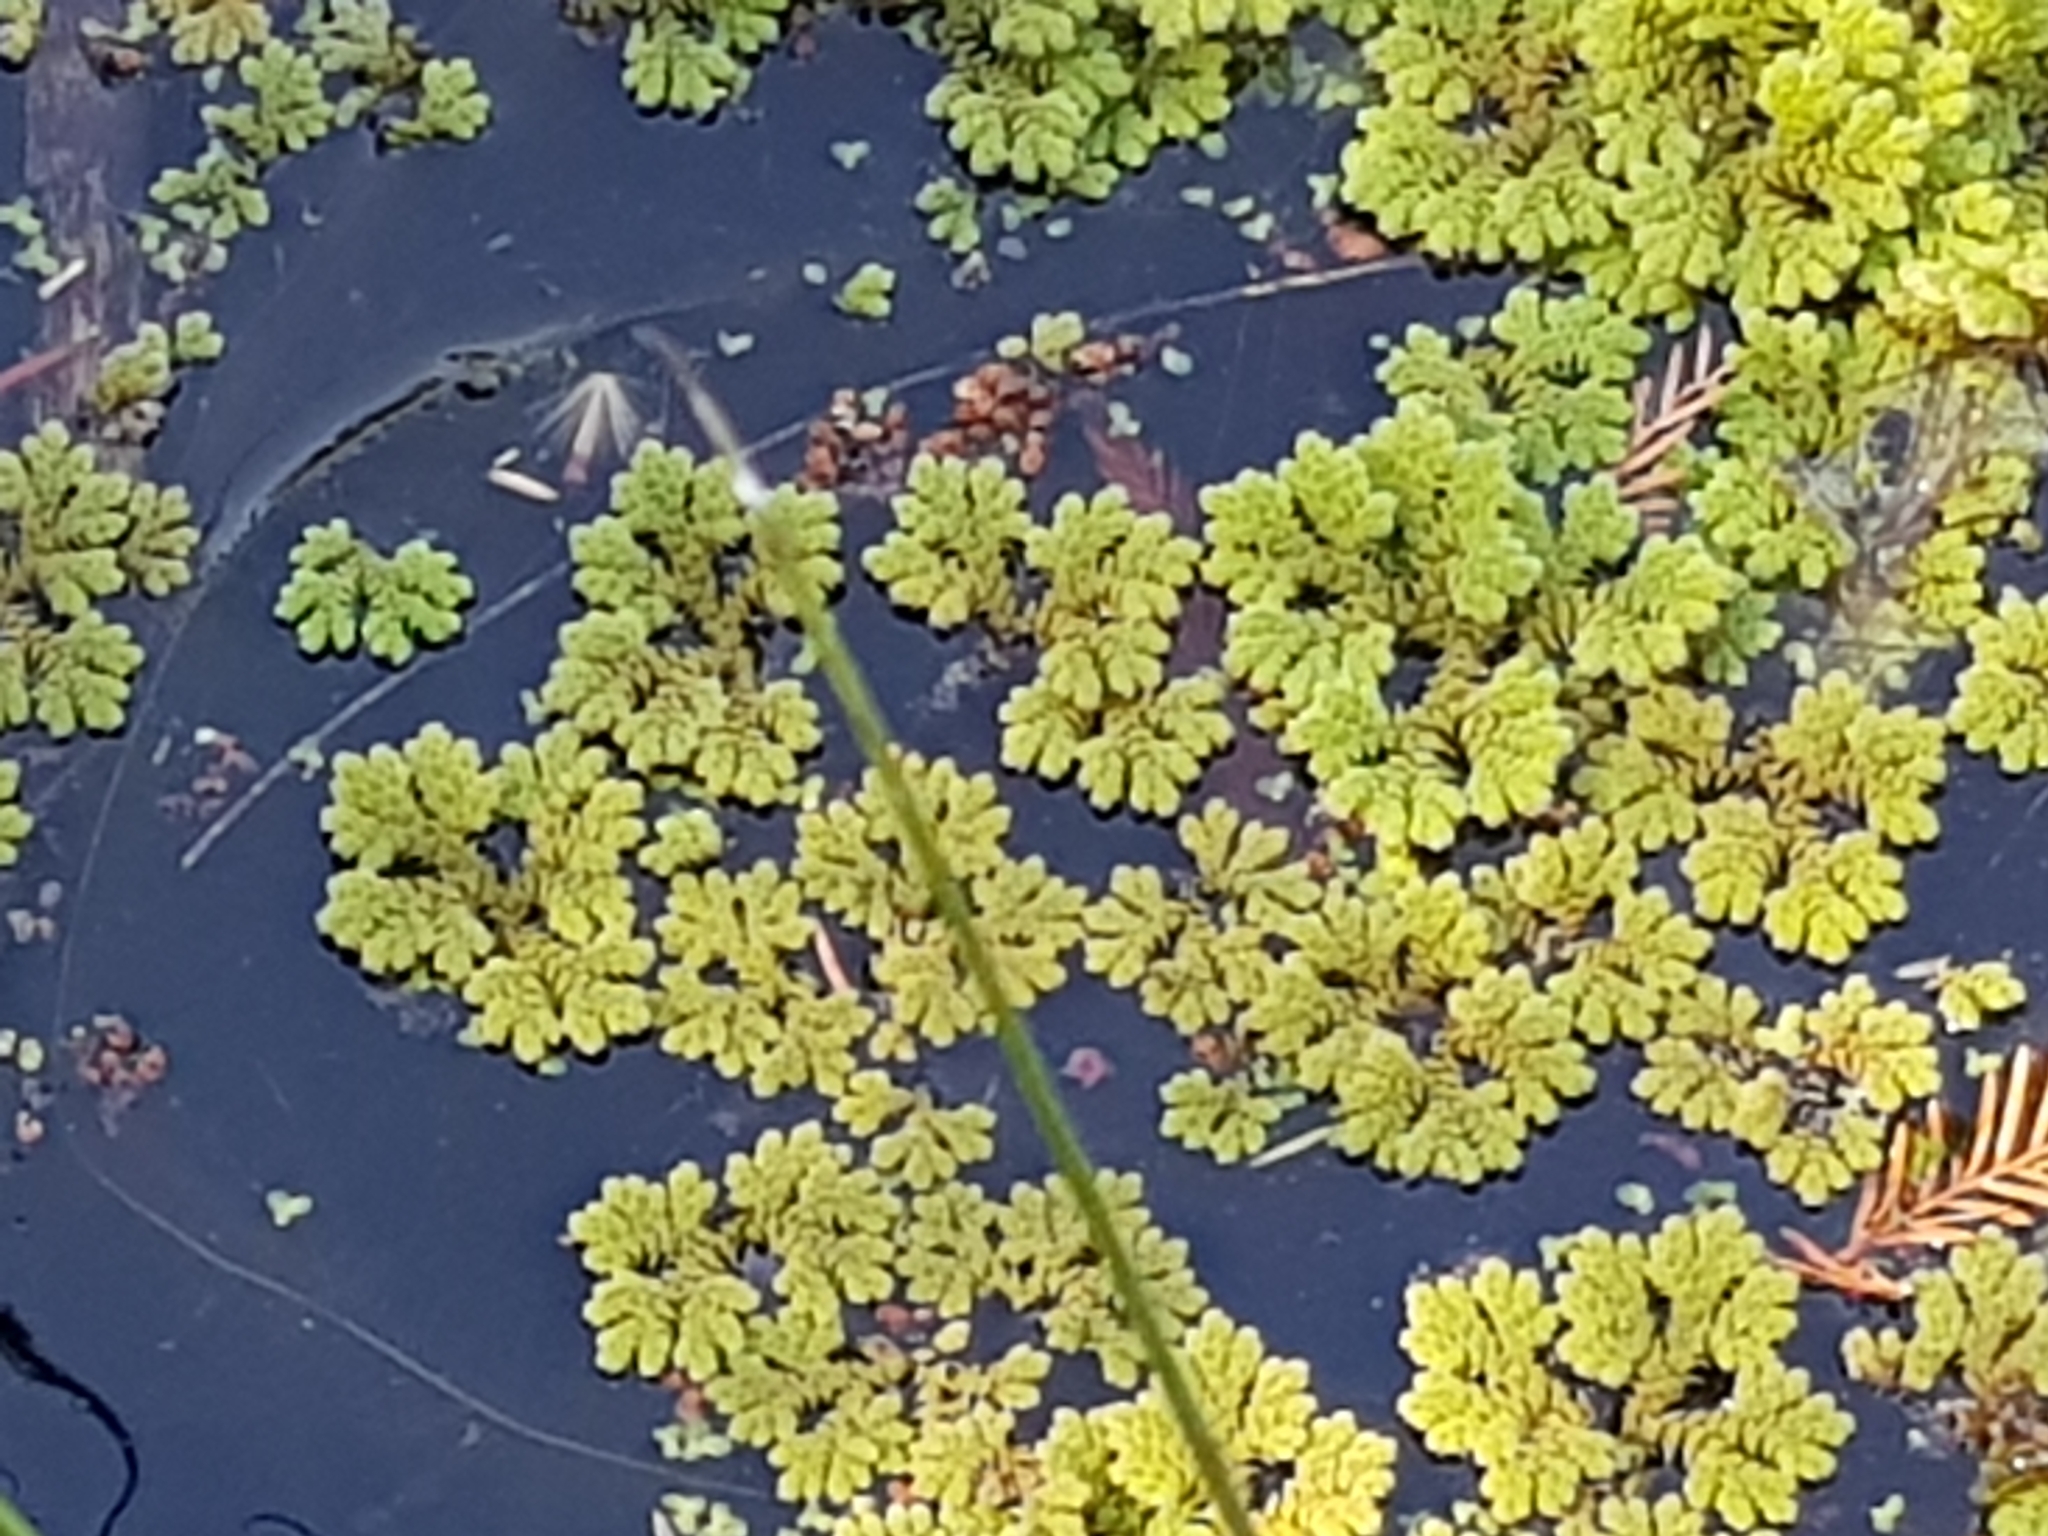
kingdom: Plantae
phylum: Tracheophyta
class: Polypodiopsida
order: Salviniales
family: Salviniaceae
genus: Azolla
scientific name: Azolla rubra
